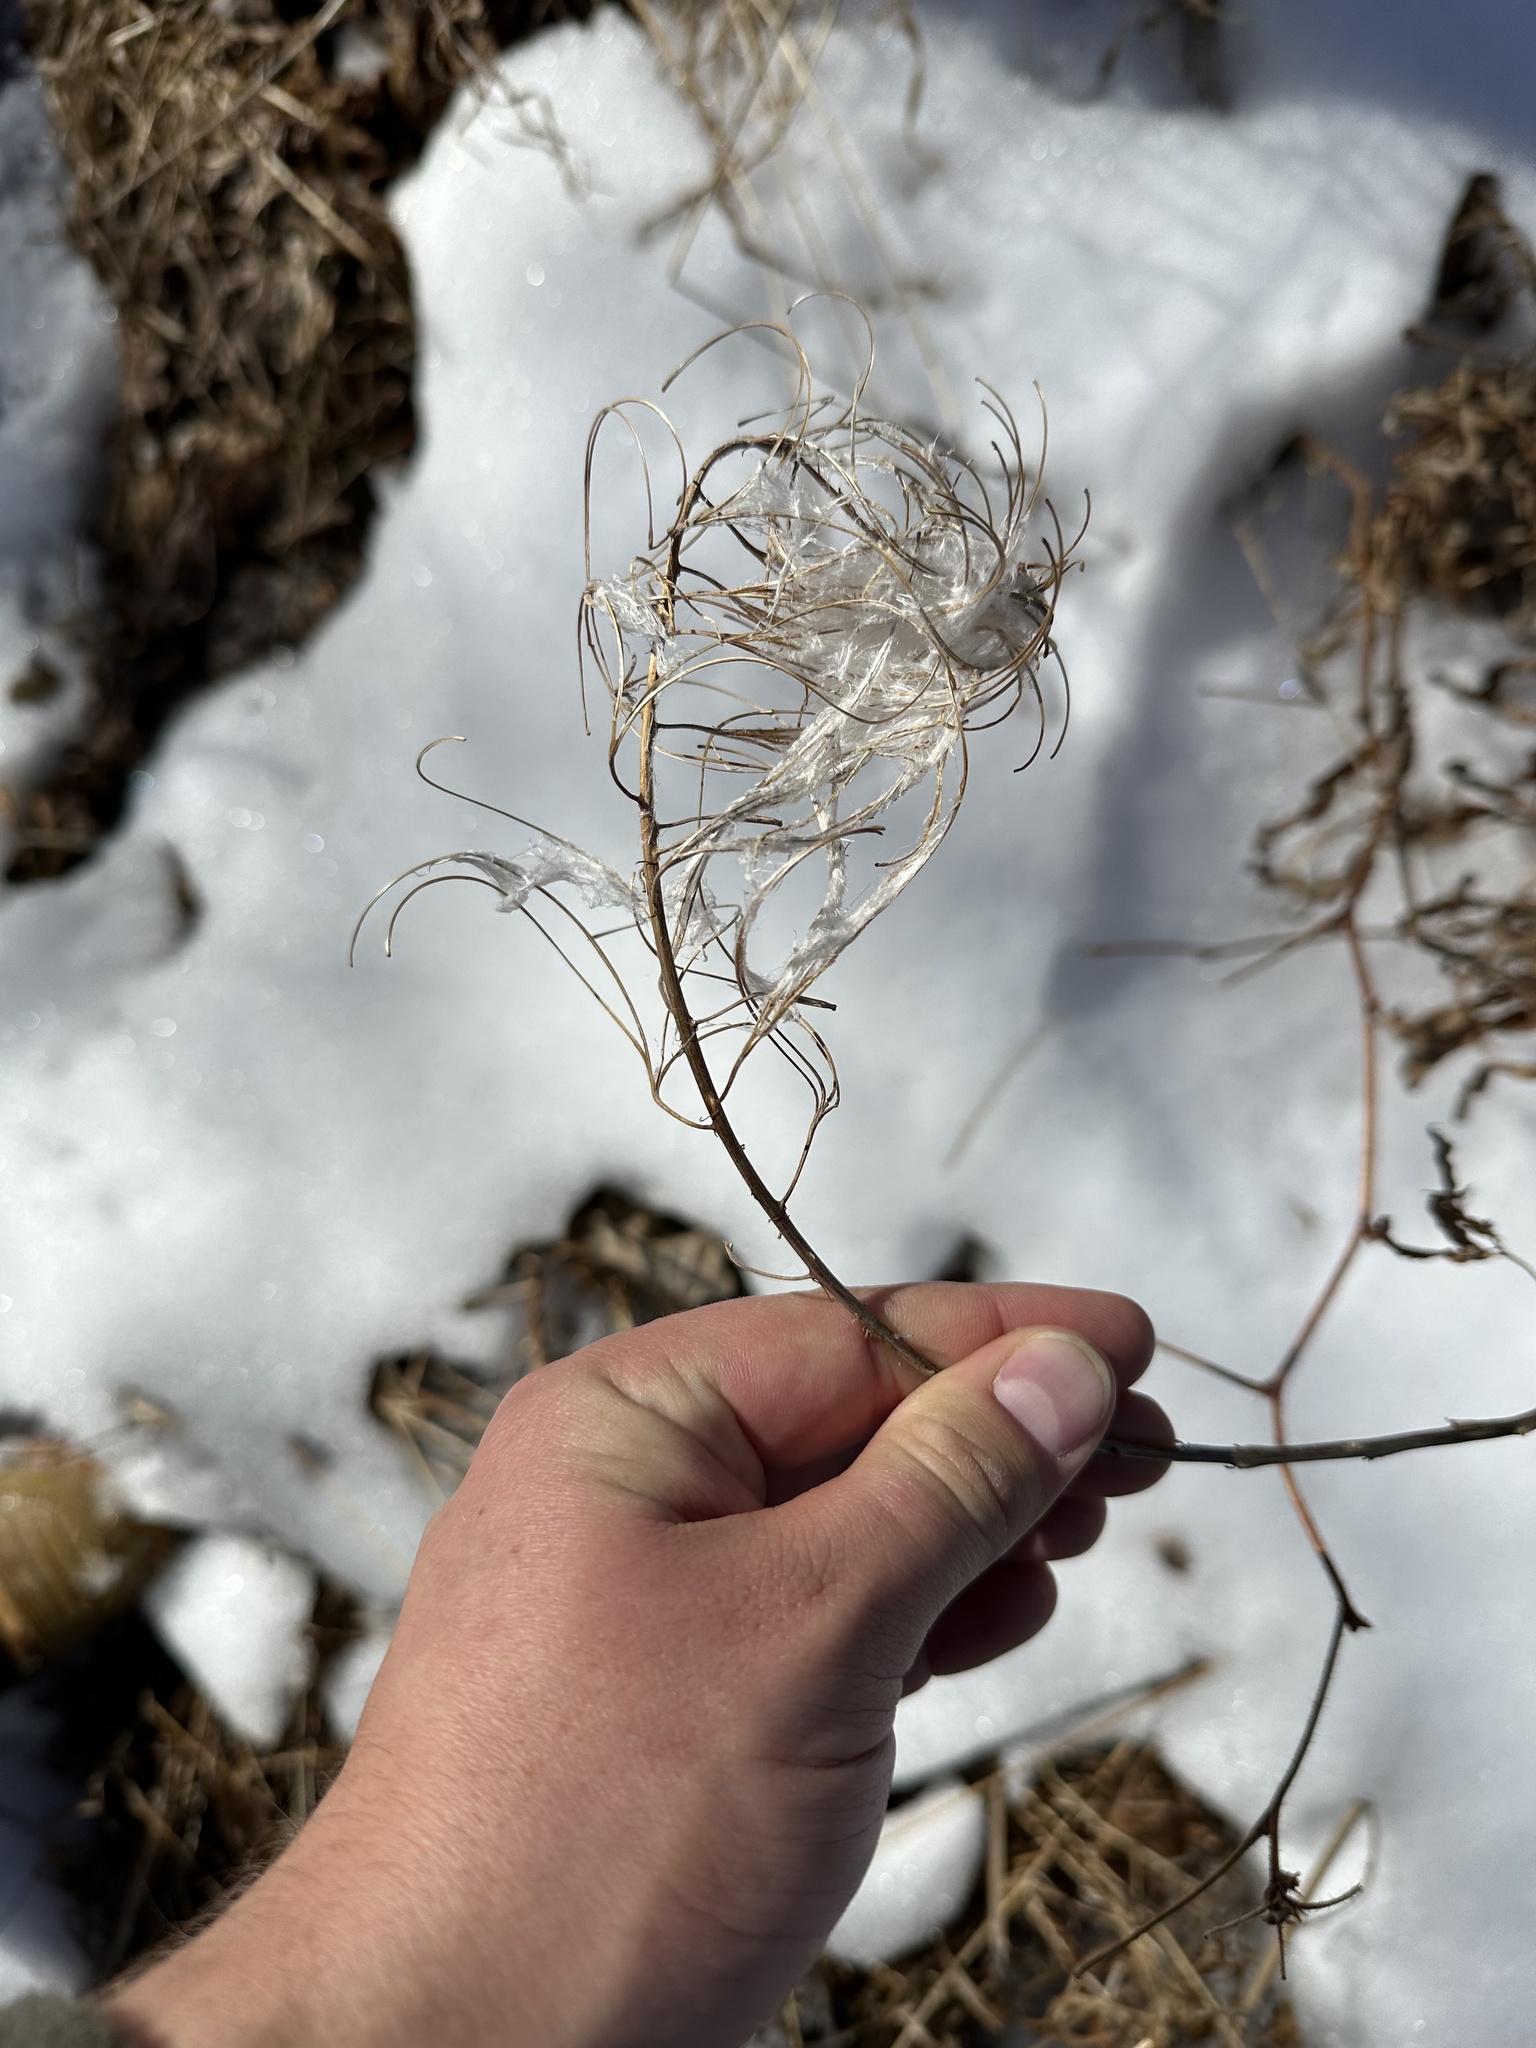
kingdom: Plantae
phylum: Tracheophyta
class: Magnoliopsida
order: Myrtales
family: Onagraceae
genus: Chamaenerion
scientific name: Chamaenerion angustifolium
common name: Fireweed
